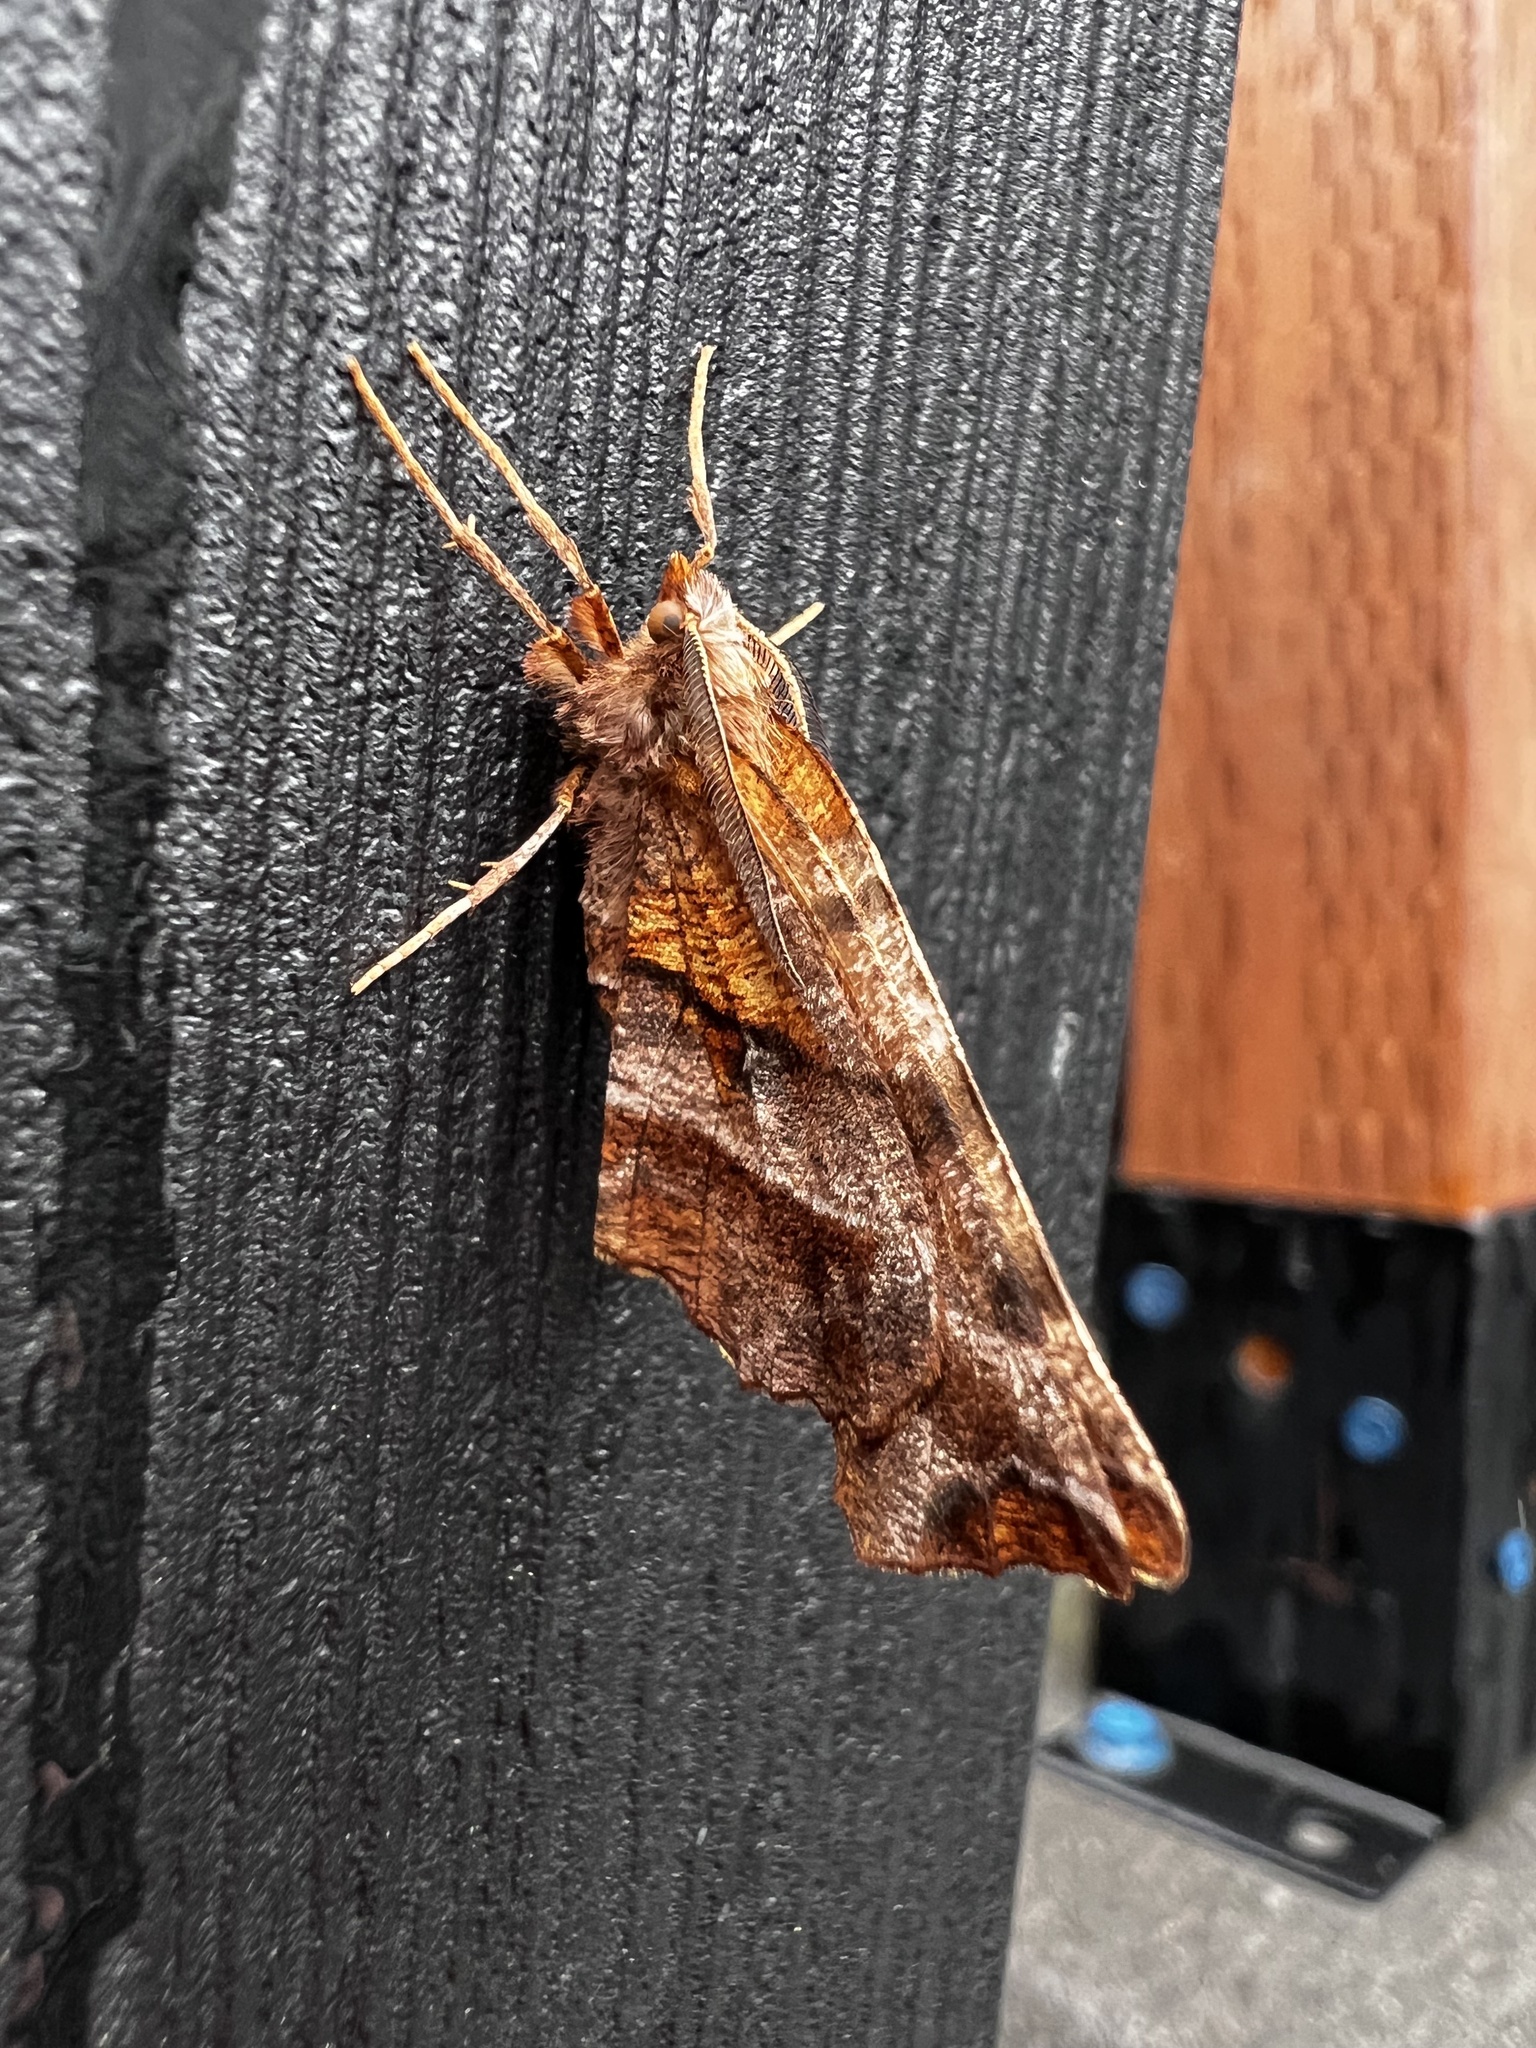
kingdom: Animalia
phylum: Arthropoda
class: Insecta
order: Lepidoptera
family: Geometridae
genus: Selenia
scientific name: Selenia alciphearia
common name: Brown-tipped thorn
